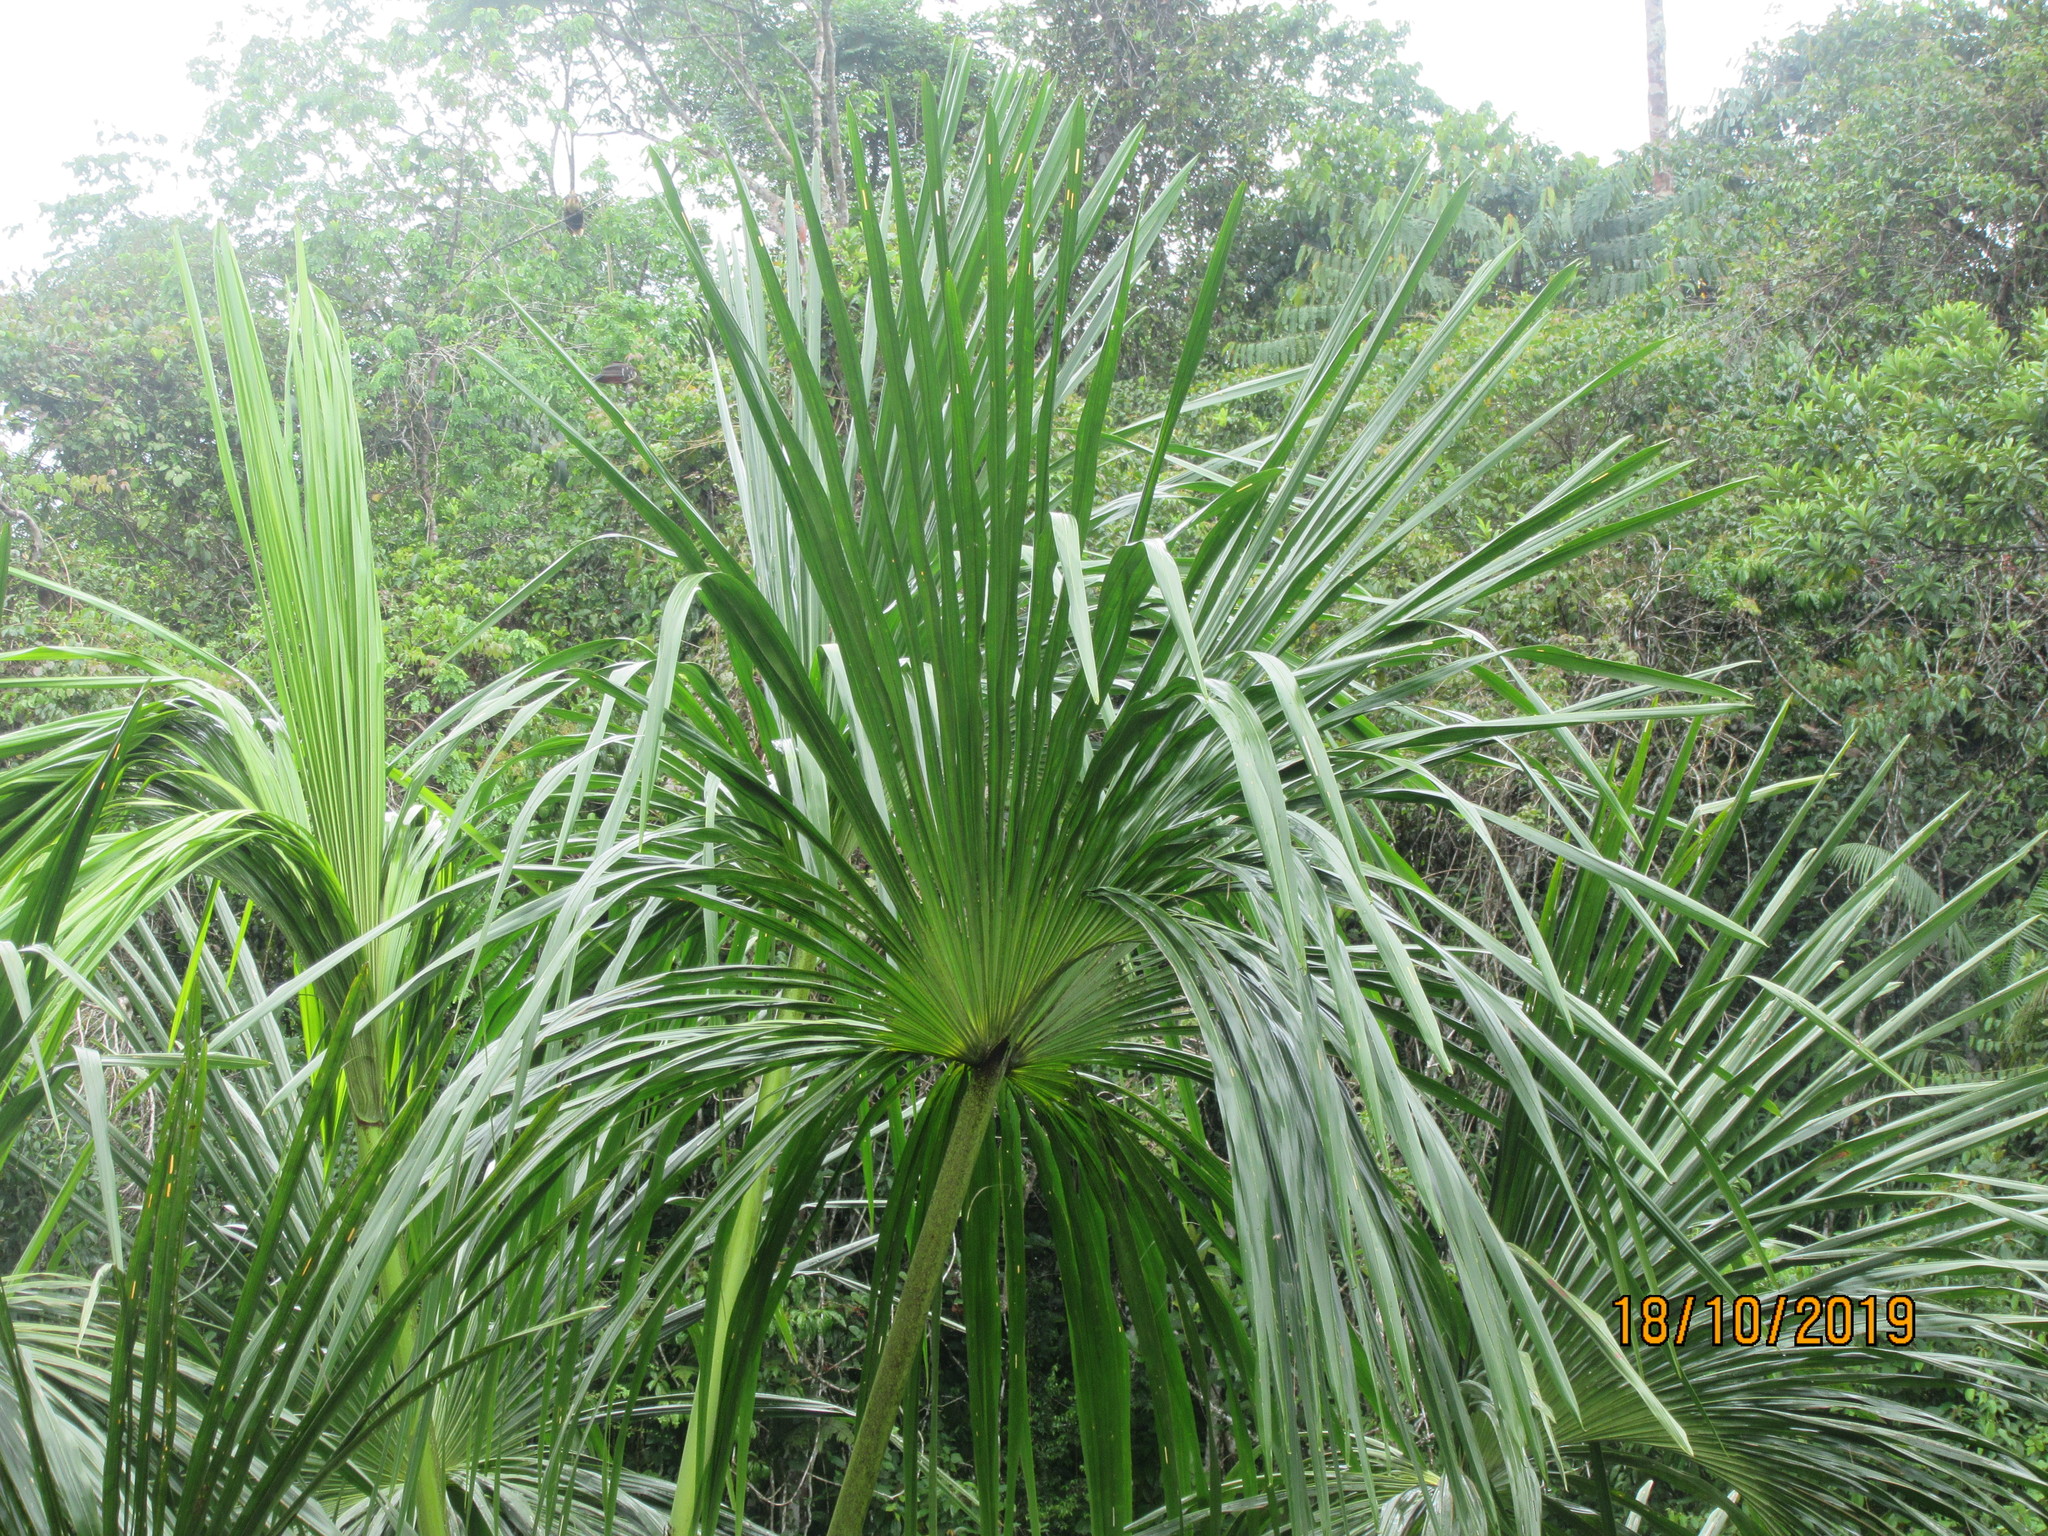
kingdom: Plantae
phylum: Tracheophyta
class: Liliopsida
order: Arecales
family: Arecaceae
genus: Mauritia
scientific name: Mauritia flexuosa
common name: Tree-of-life
